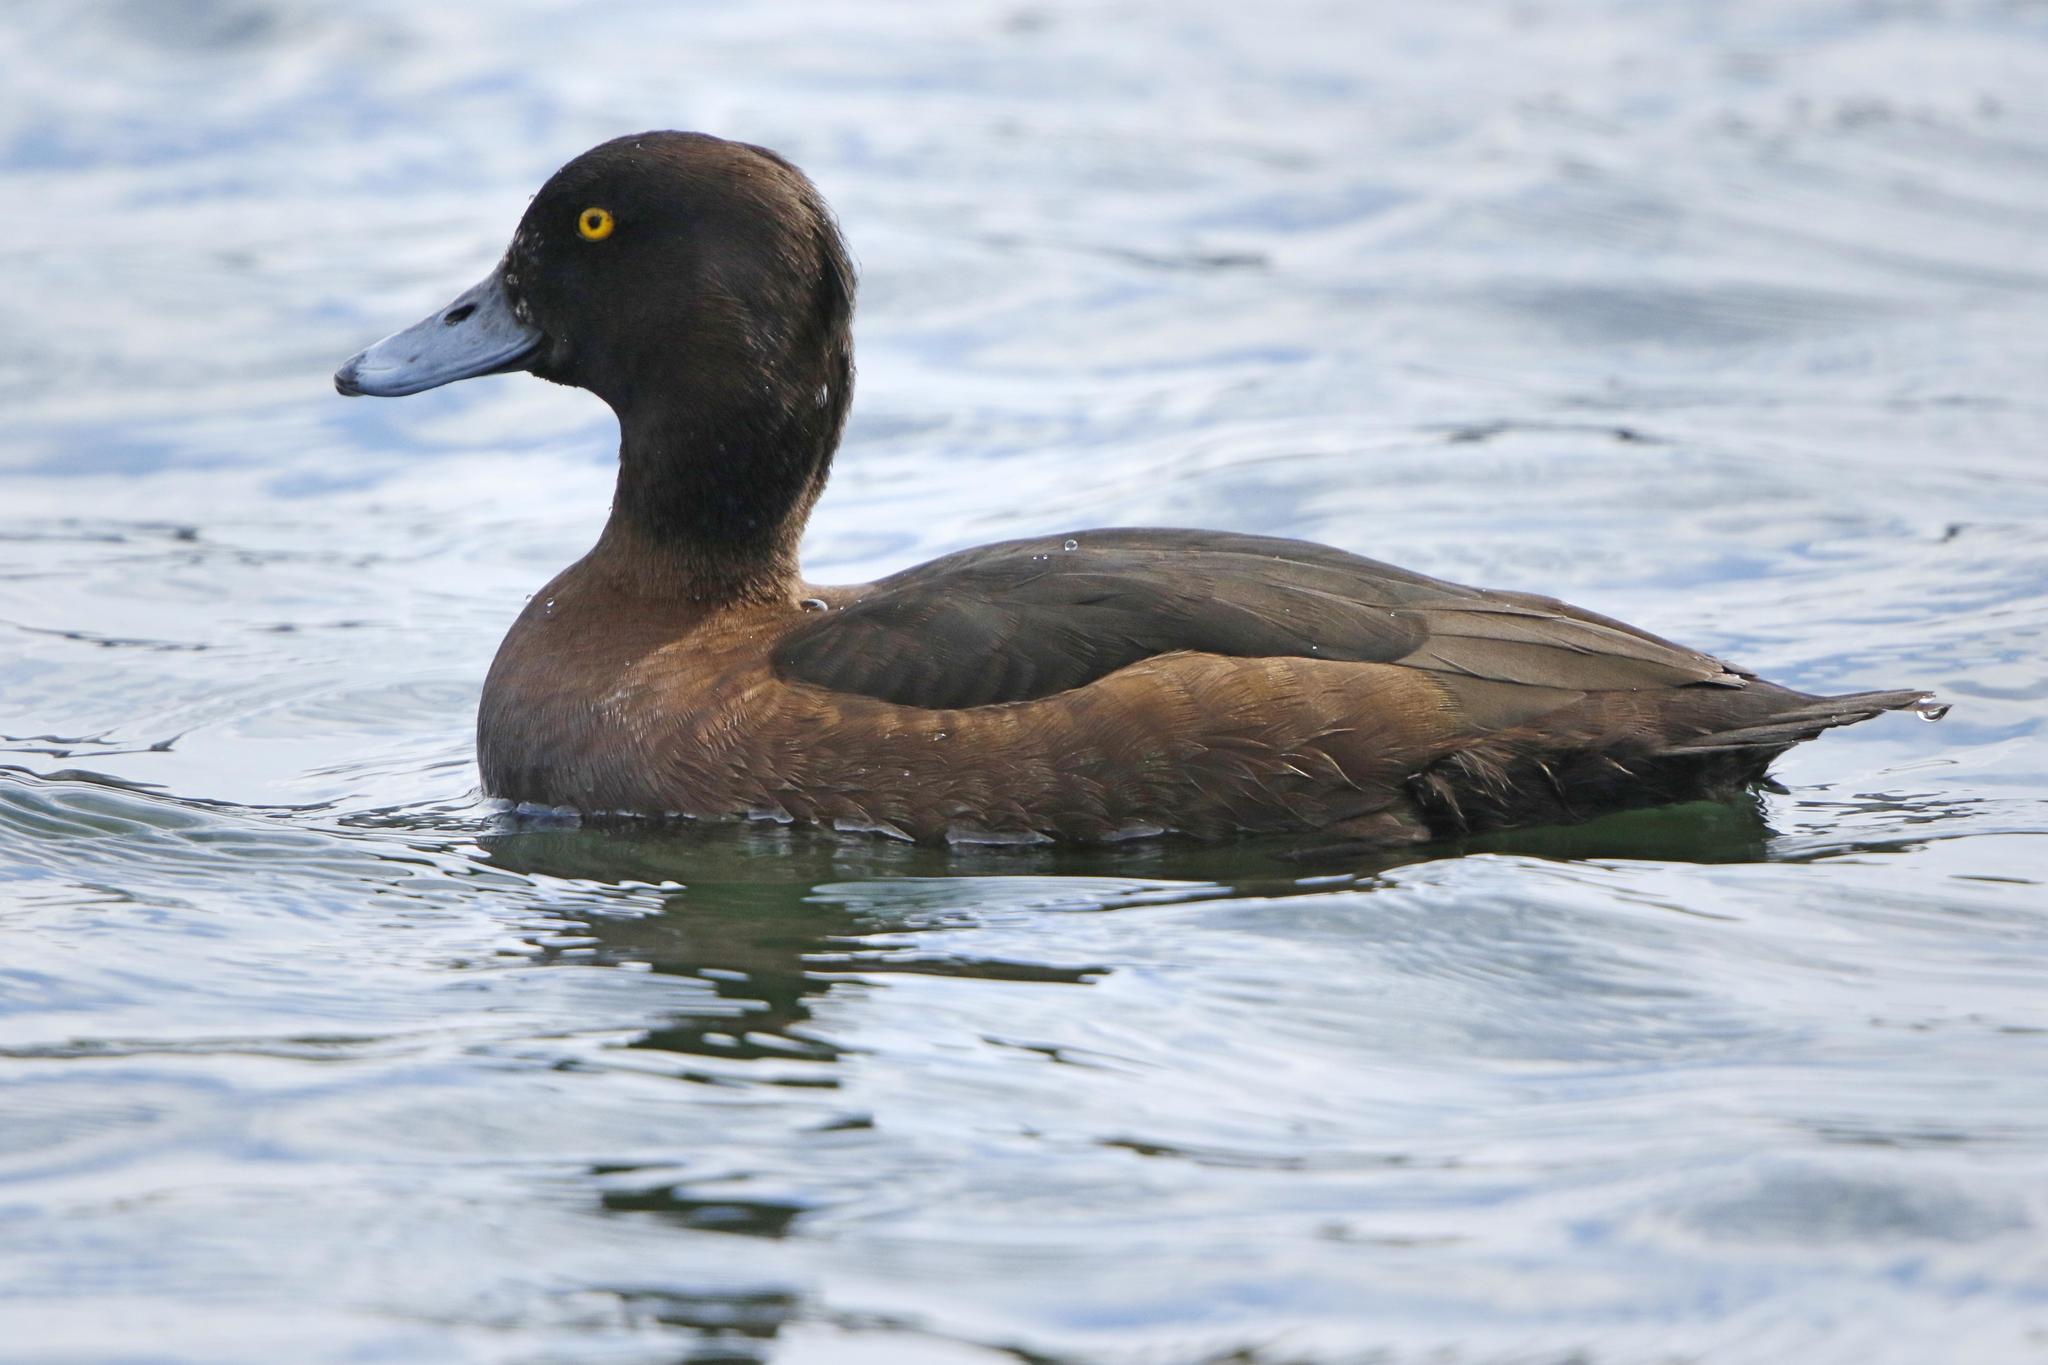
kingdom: Animalia
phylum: Chordata
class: Aves
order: Anseriformes
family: Anatidae
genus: Aythya
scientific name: Aythya fuligula
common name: Tufted duck
